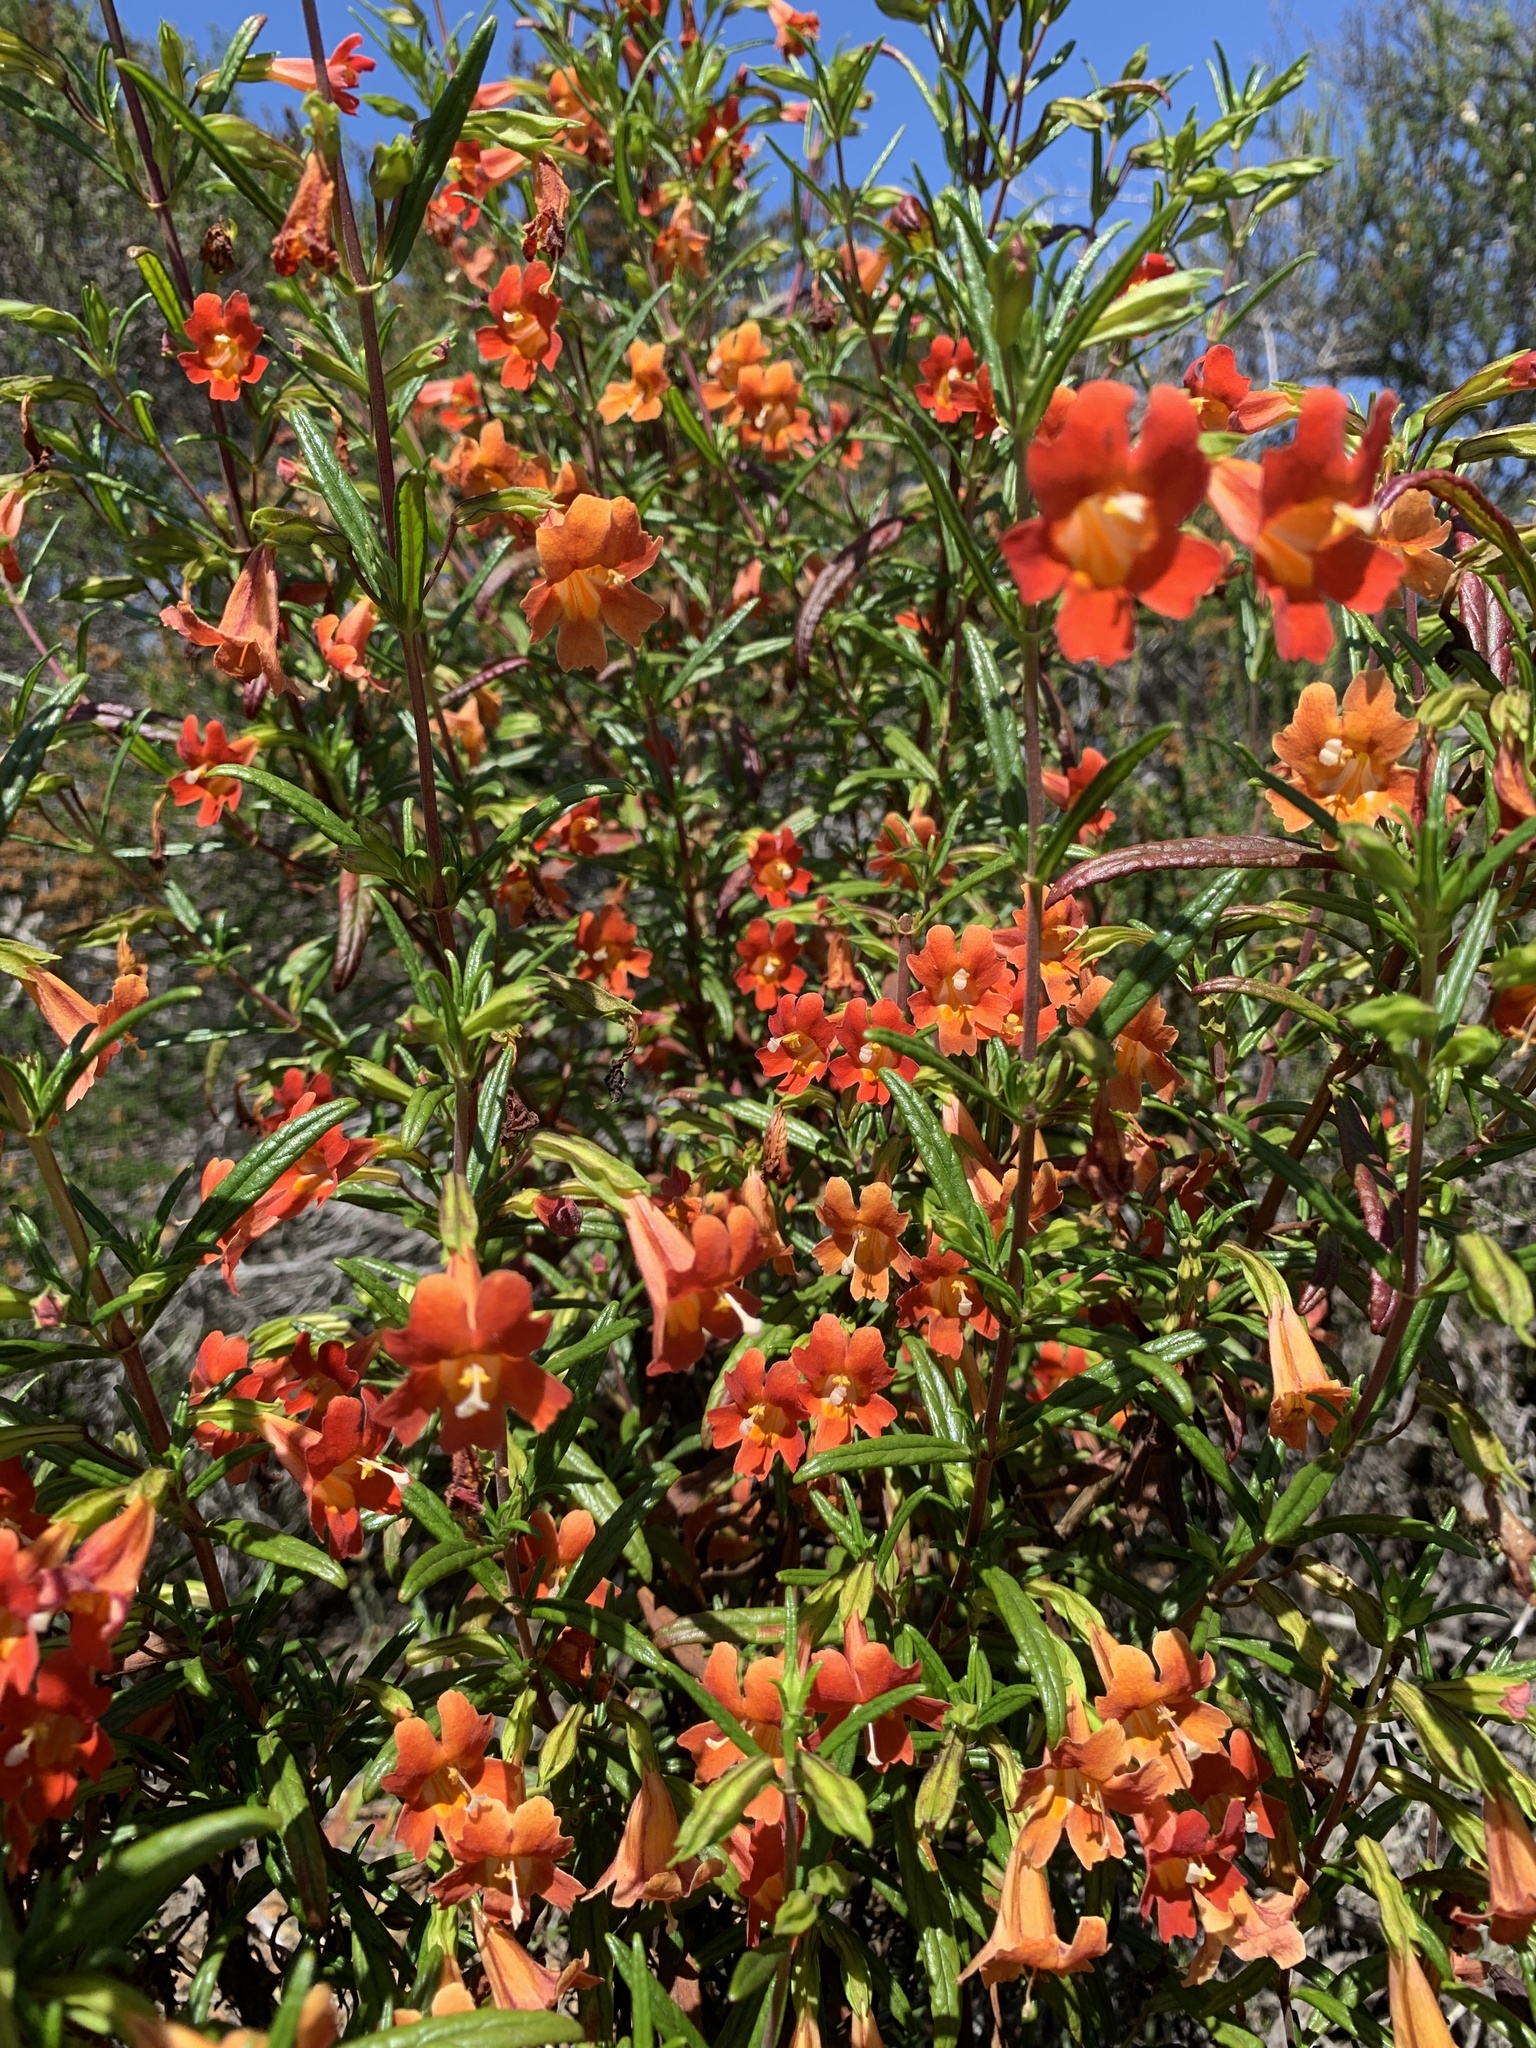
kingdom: Plantae
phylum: Tracheophyta
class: Magnoliopsida
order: Lamiales
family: Phrymaceae
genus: Diplacus
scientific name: Diplacus puniceus
